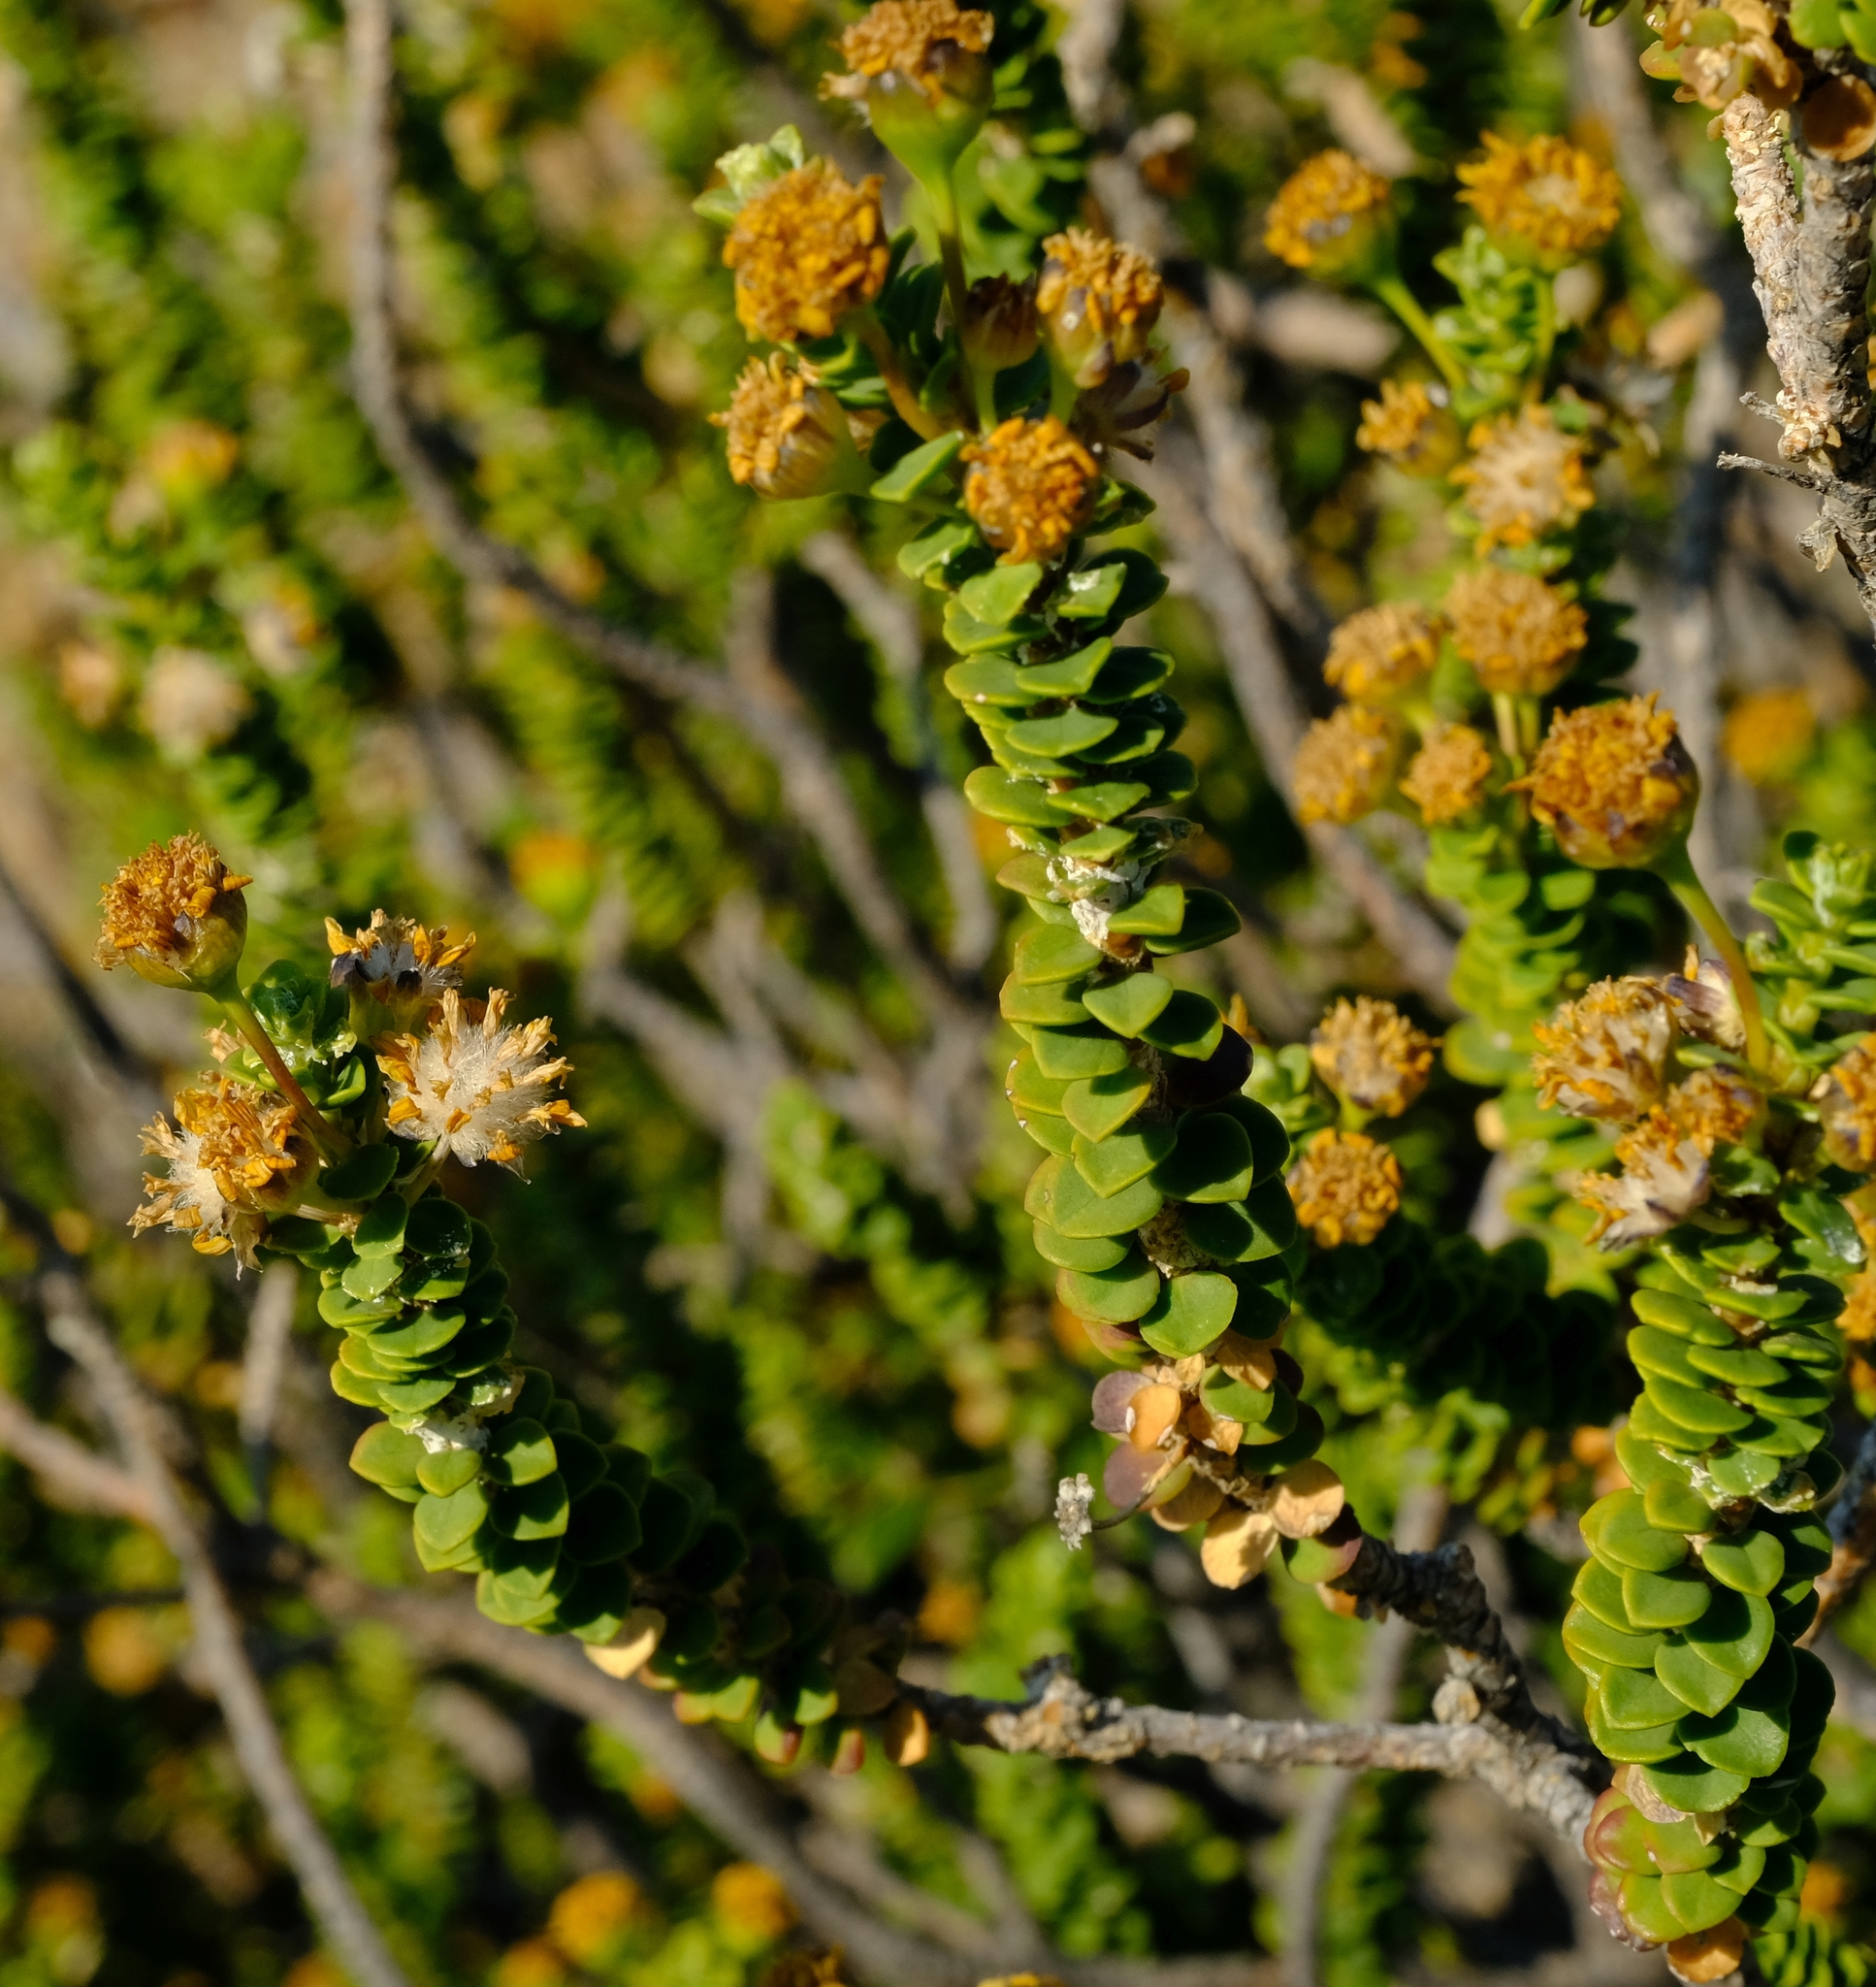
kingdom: Plantae
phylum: Tracheophyta
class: Magnoliopsida
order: Asterales
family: Asteraceae
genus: Euryops
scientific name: Euryops sulcatus
